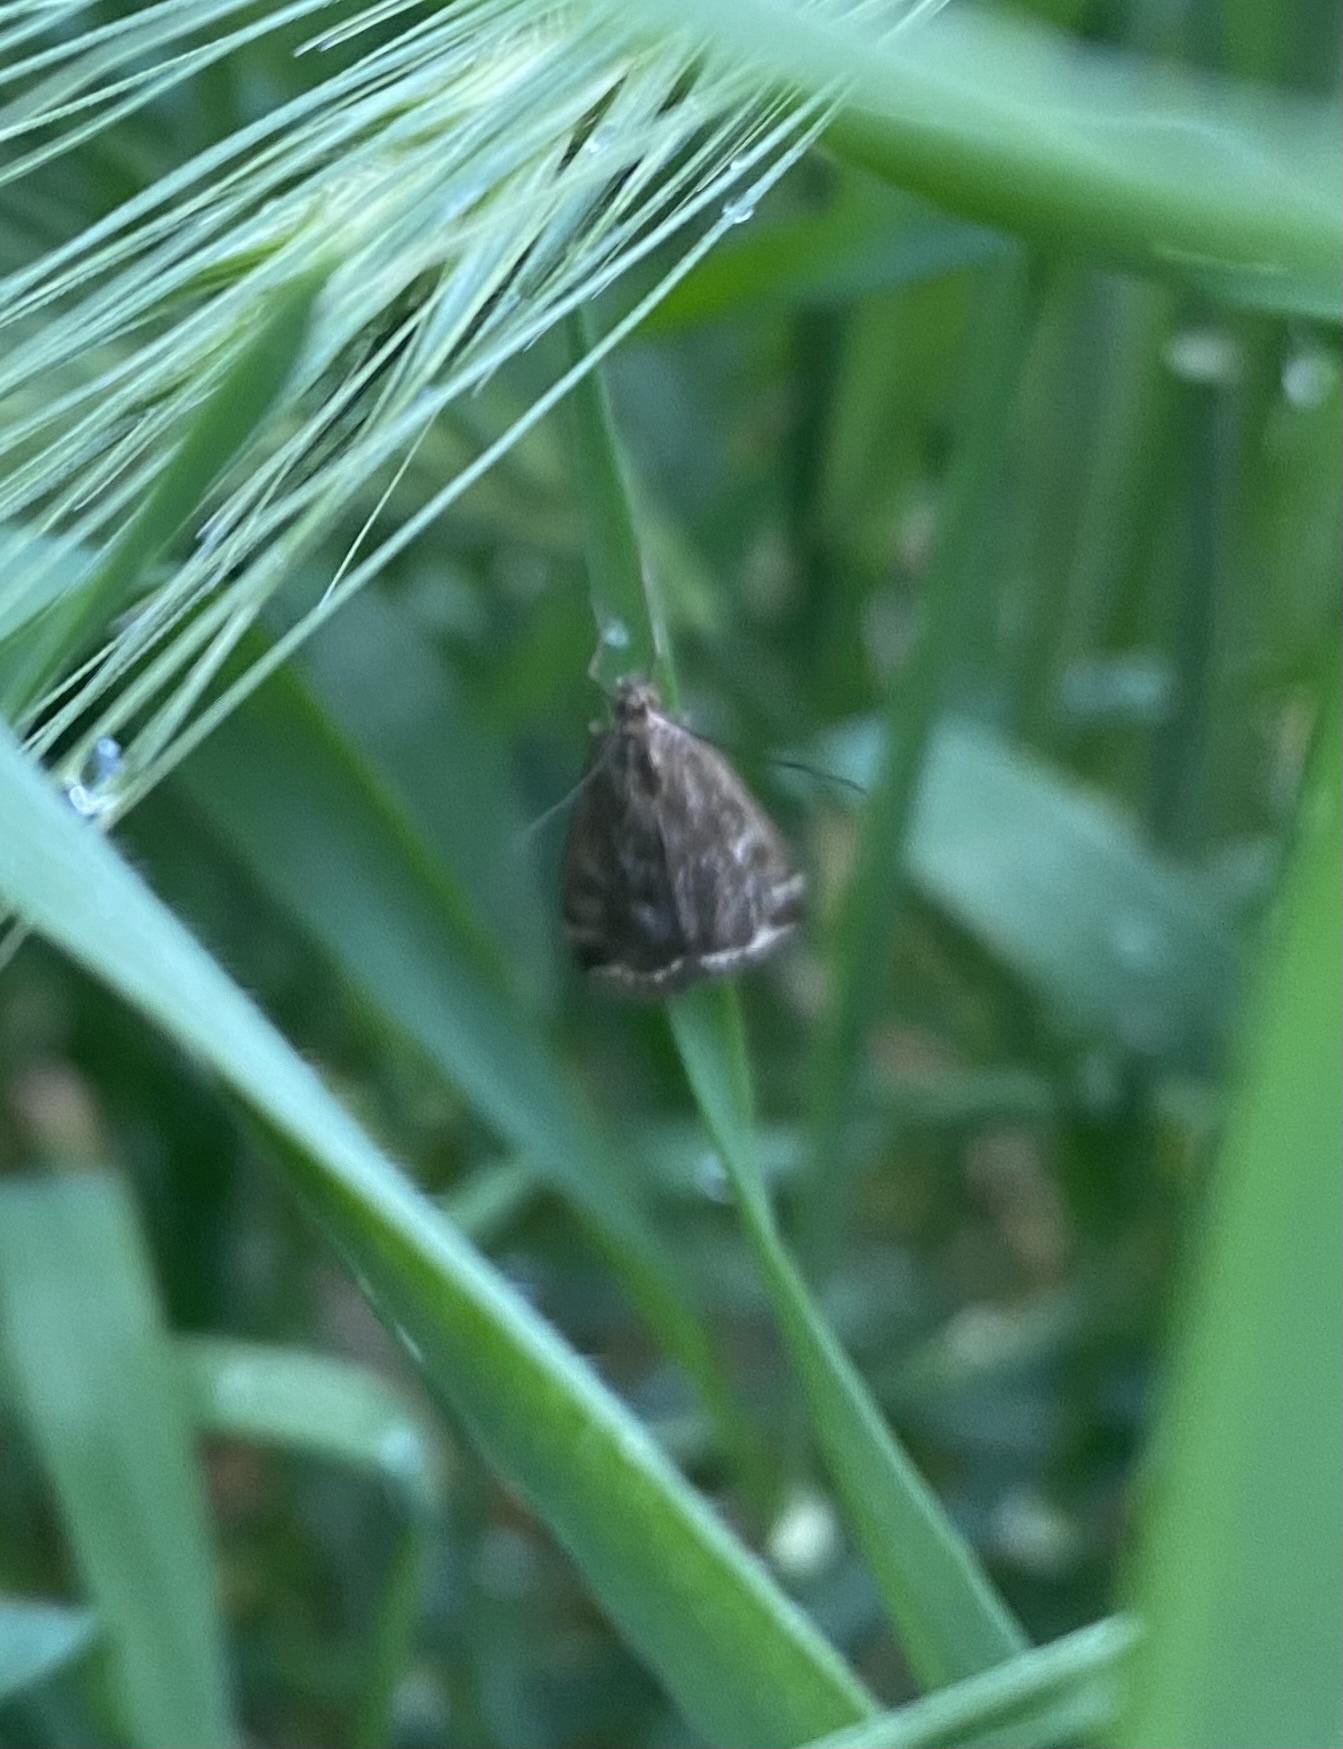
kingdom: Animalia
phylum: Arthropoda
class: Insecta
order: Lepidoptera
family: Crambidae
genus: Loxostege
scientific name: Loxostege sticticalis
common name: Crambid moth
